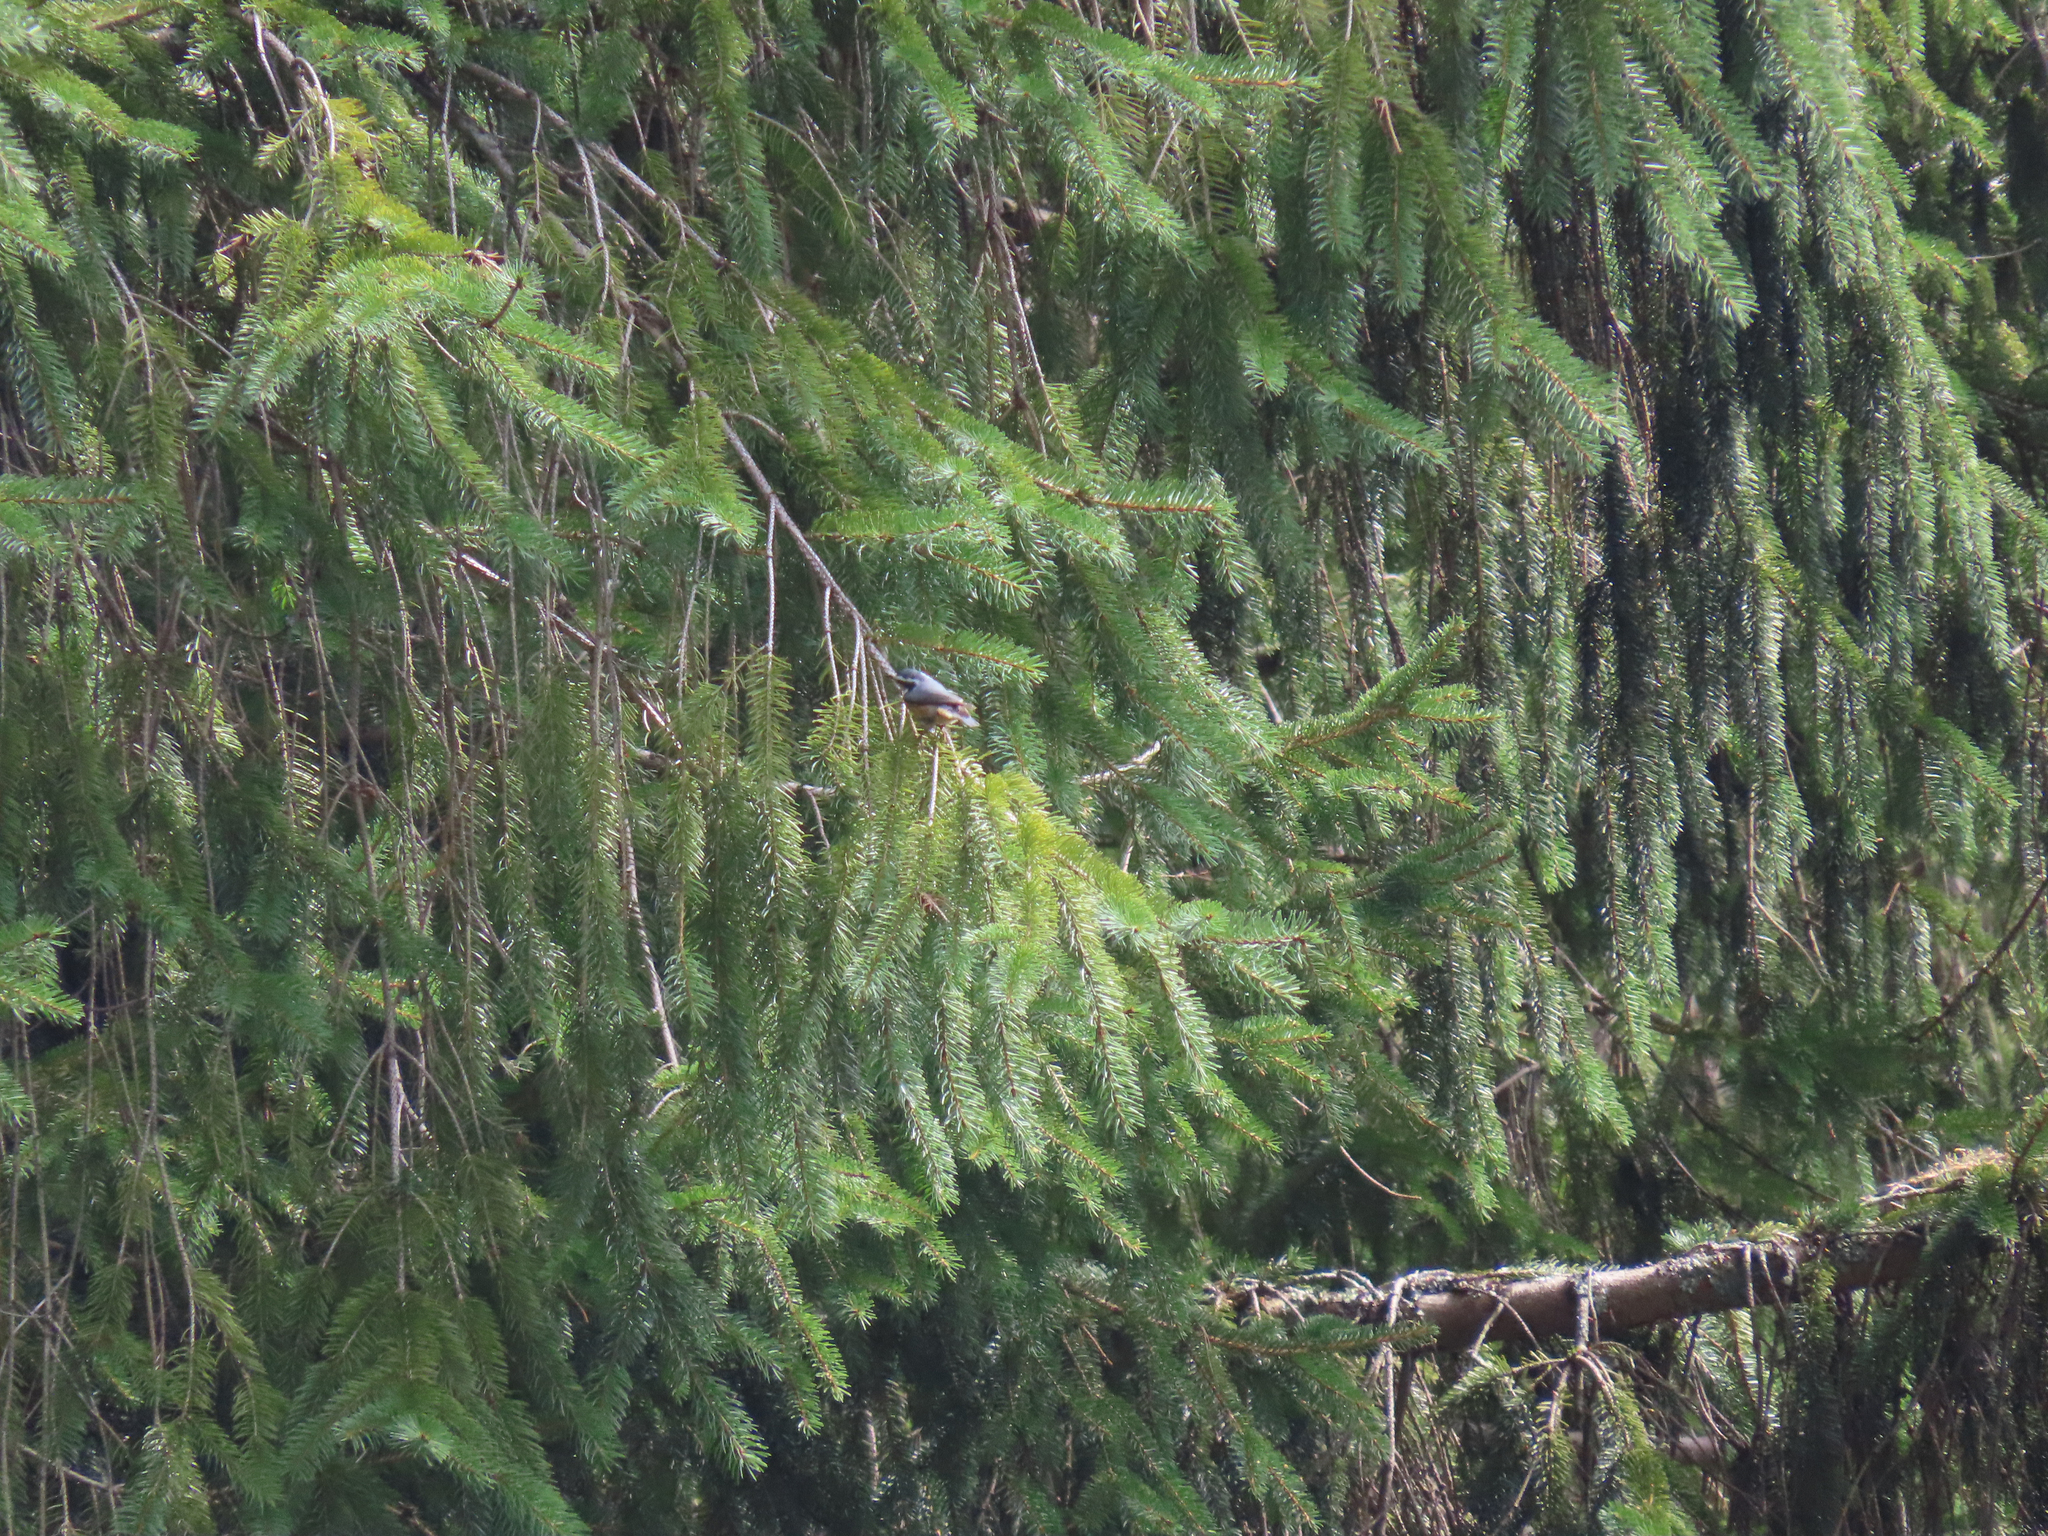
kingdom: Animalia
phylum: Chordata
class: Aves
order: Passeriformes
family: Sittidae
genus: Sitta
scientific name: Sitta canadensis
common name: Red-breasted nuthatch
